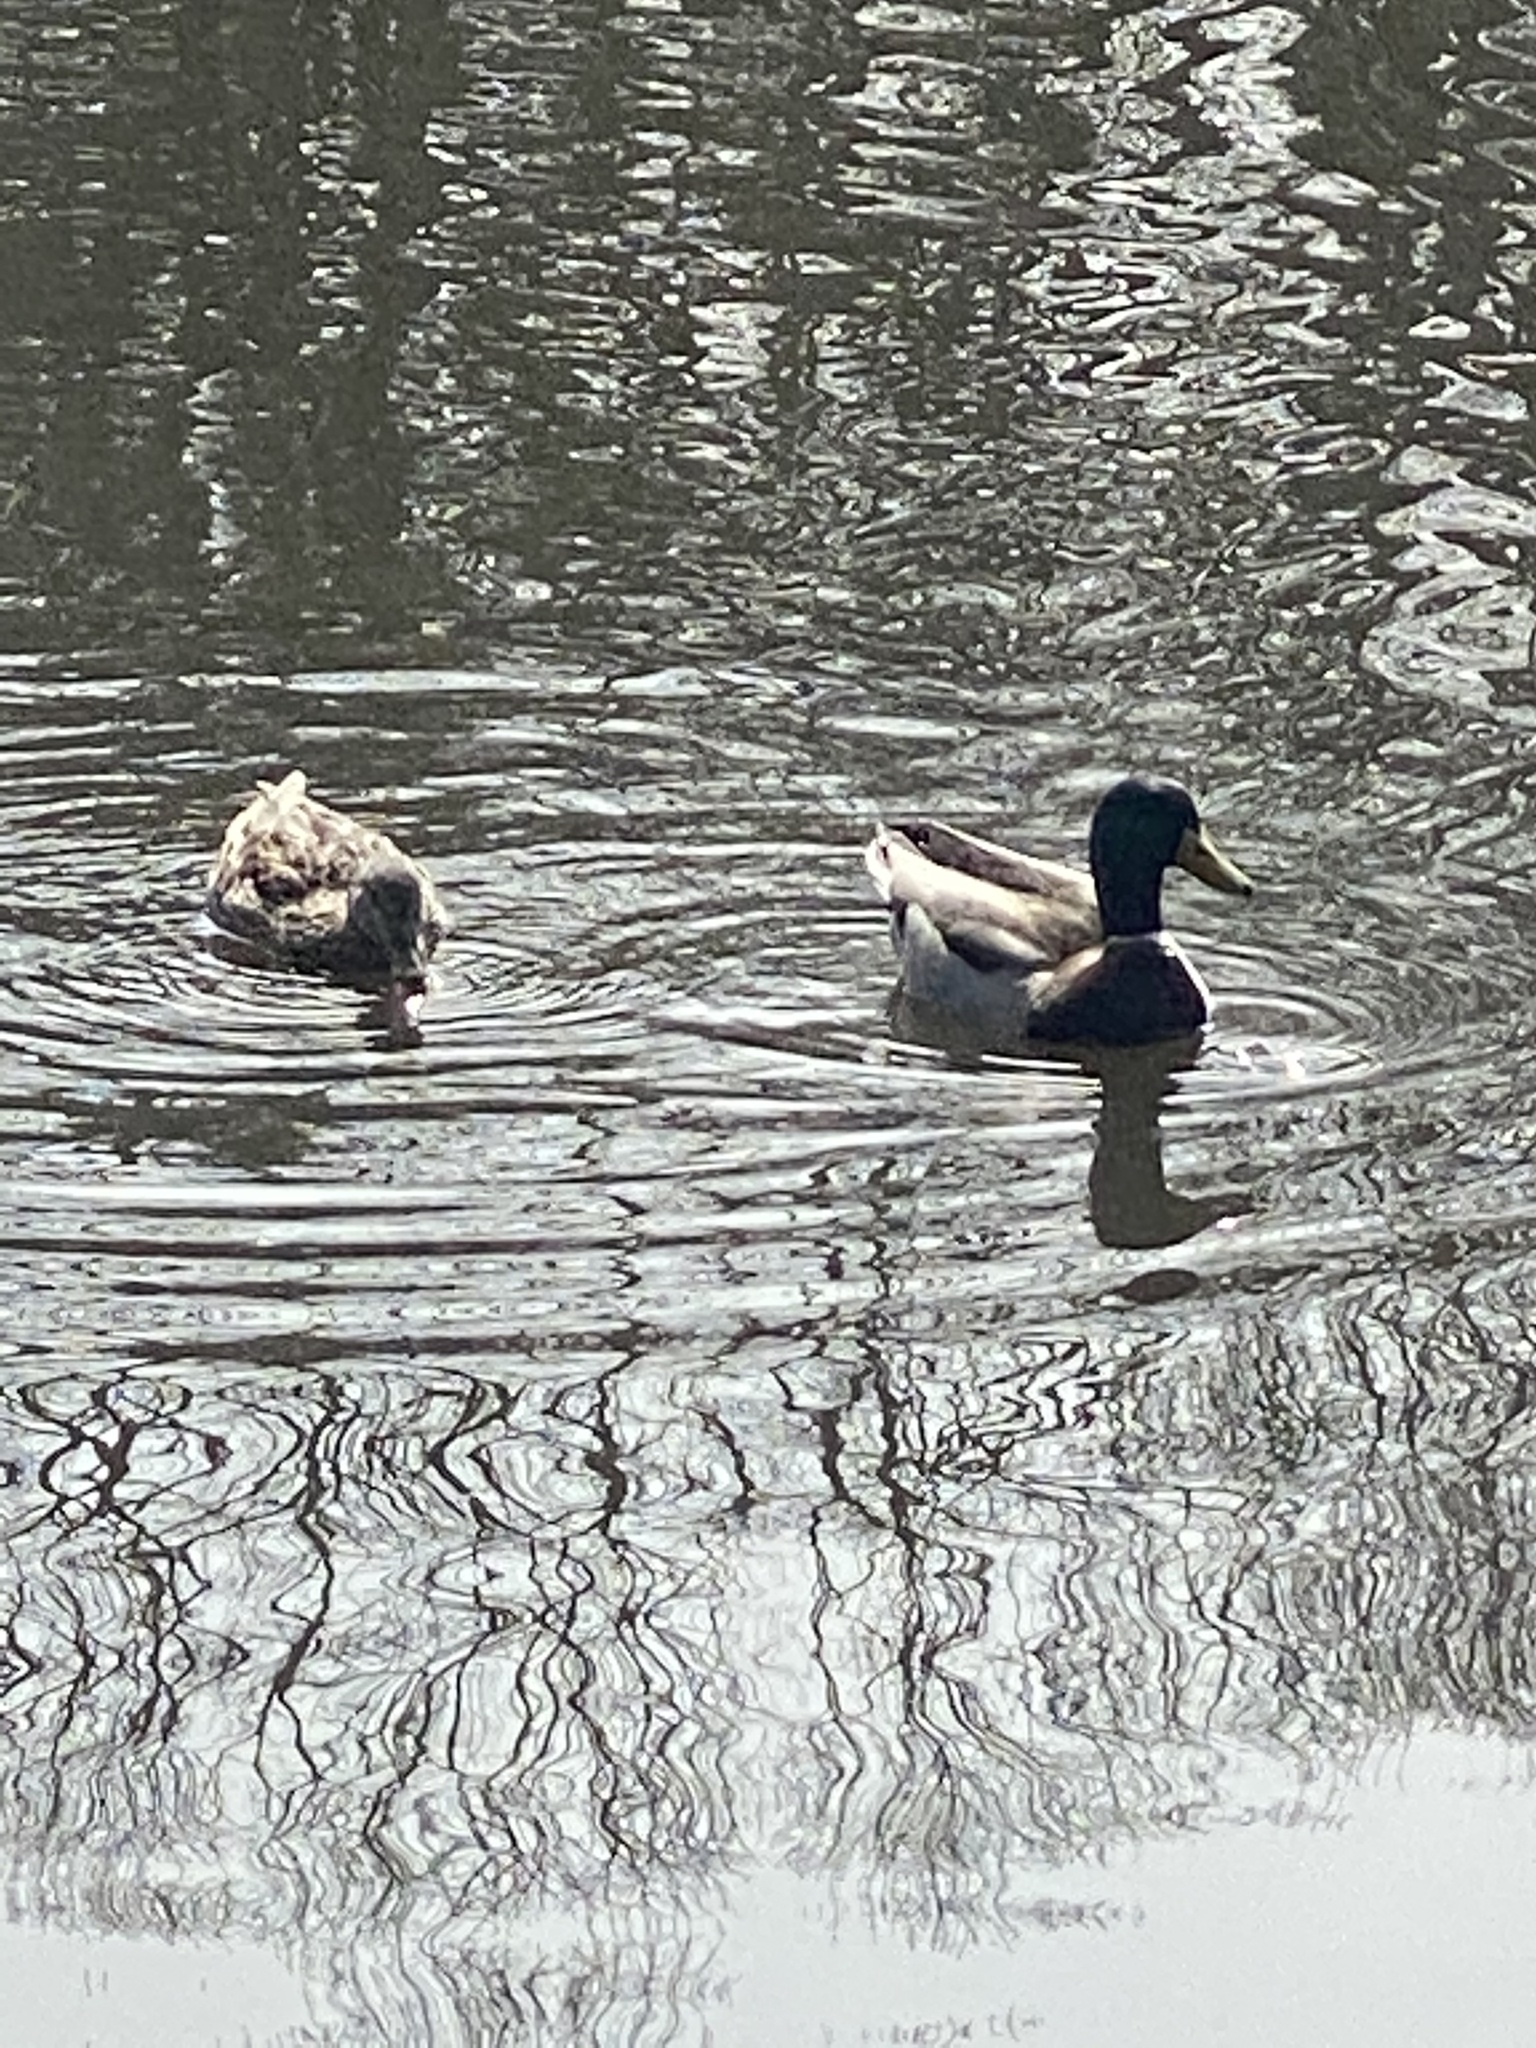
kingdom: Animalia
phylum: Chordata
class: Aves
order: Anseriformes
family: Anatidae
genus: Anas
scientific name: Anas platyrhynchos
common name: Mallard
